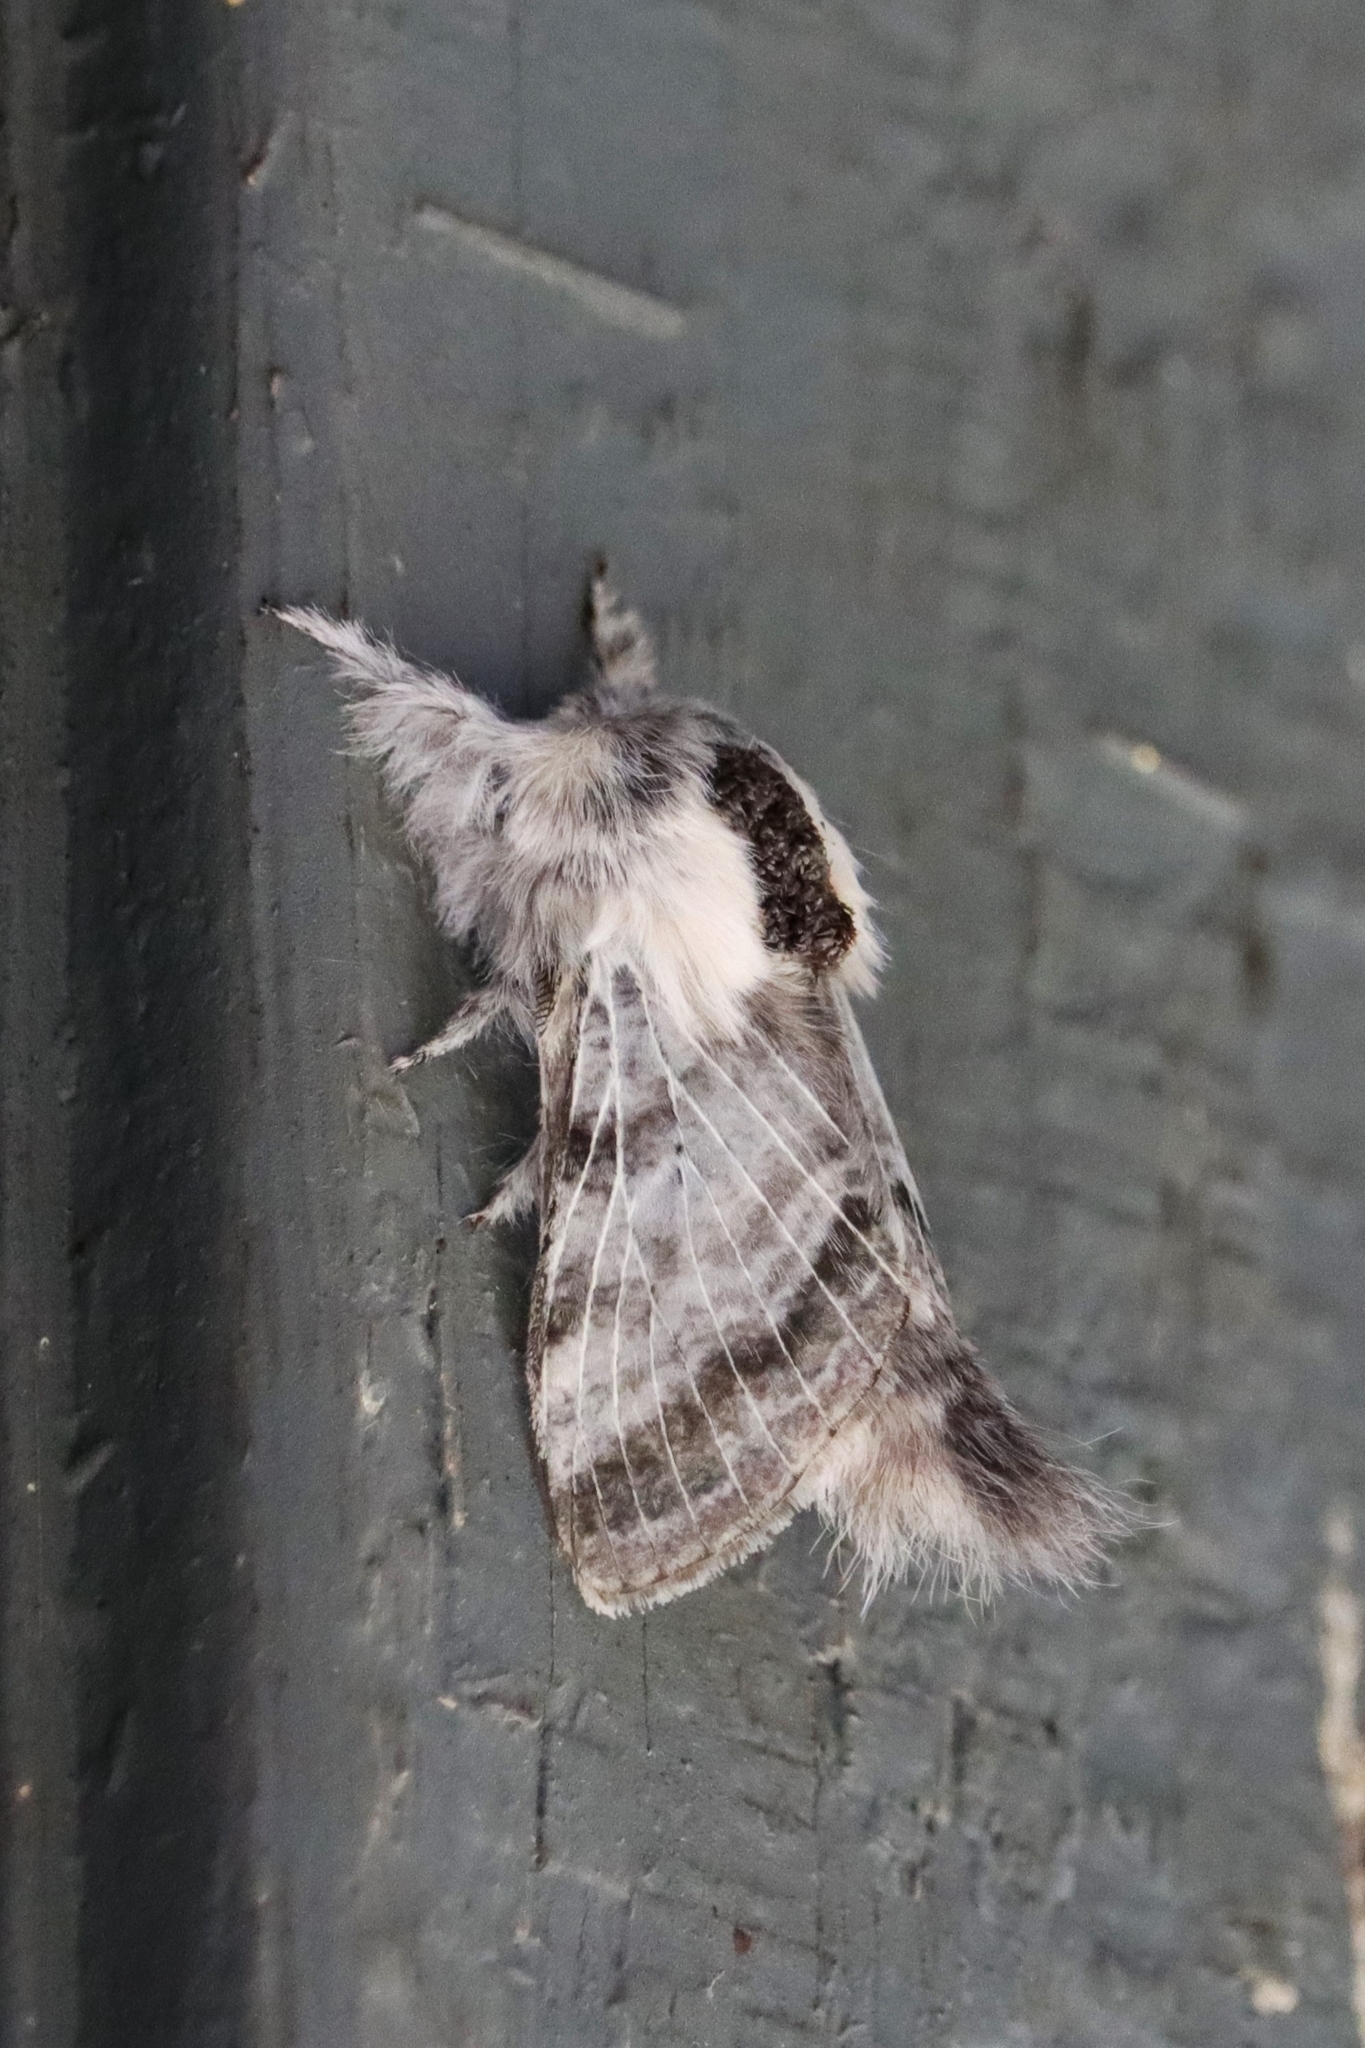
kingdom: Animalia
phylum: Arthropoda
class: Insecta
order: Lepidoptera
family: Lasiocampidae
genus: Tolype
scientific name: Tolype distincta
